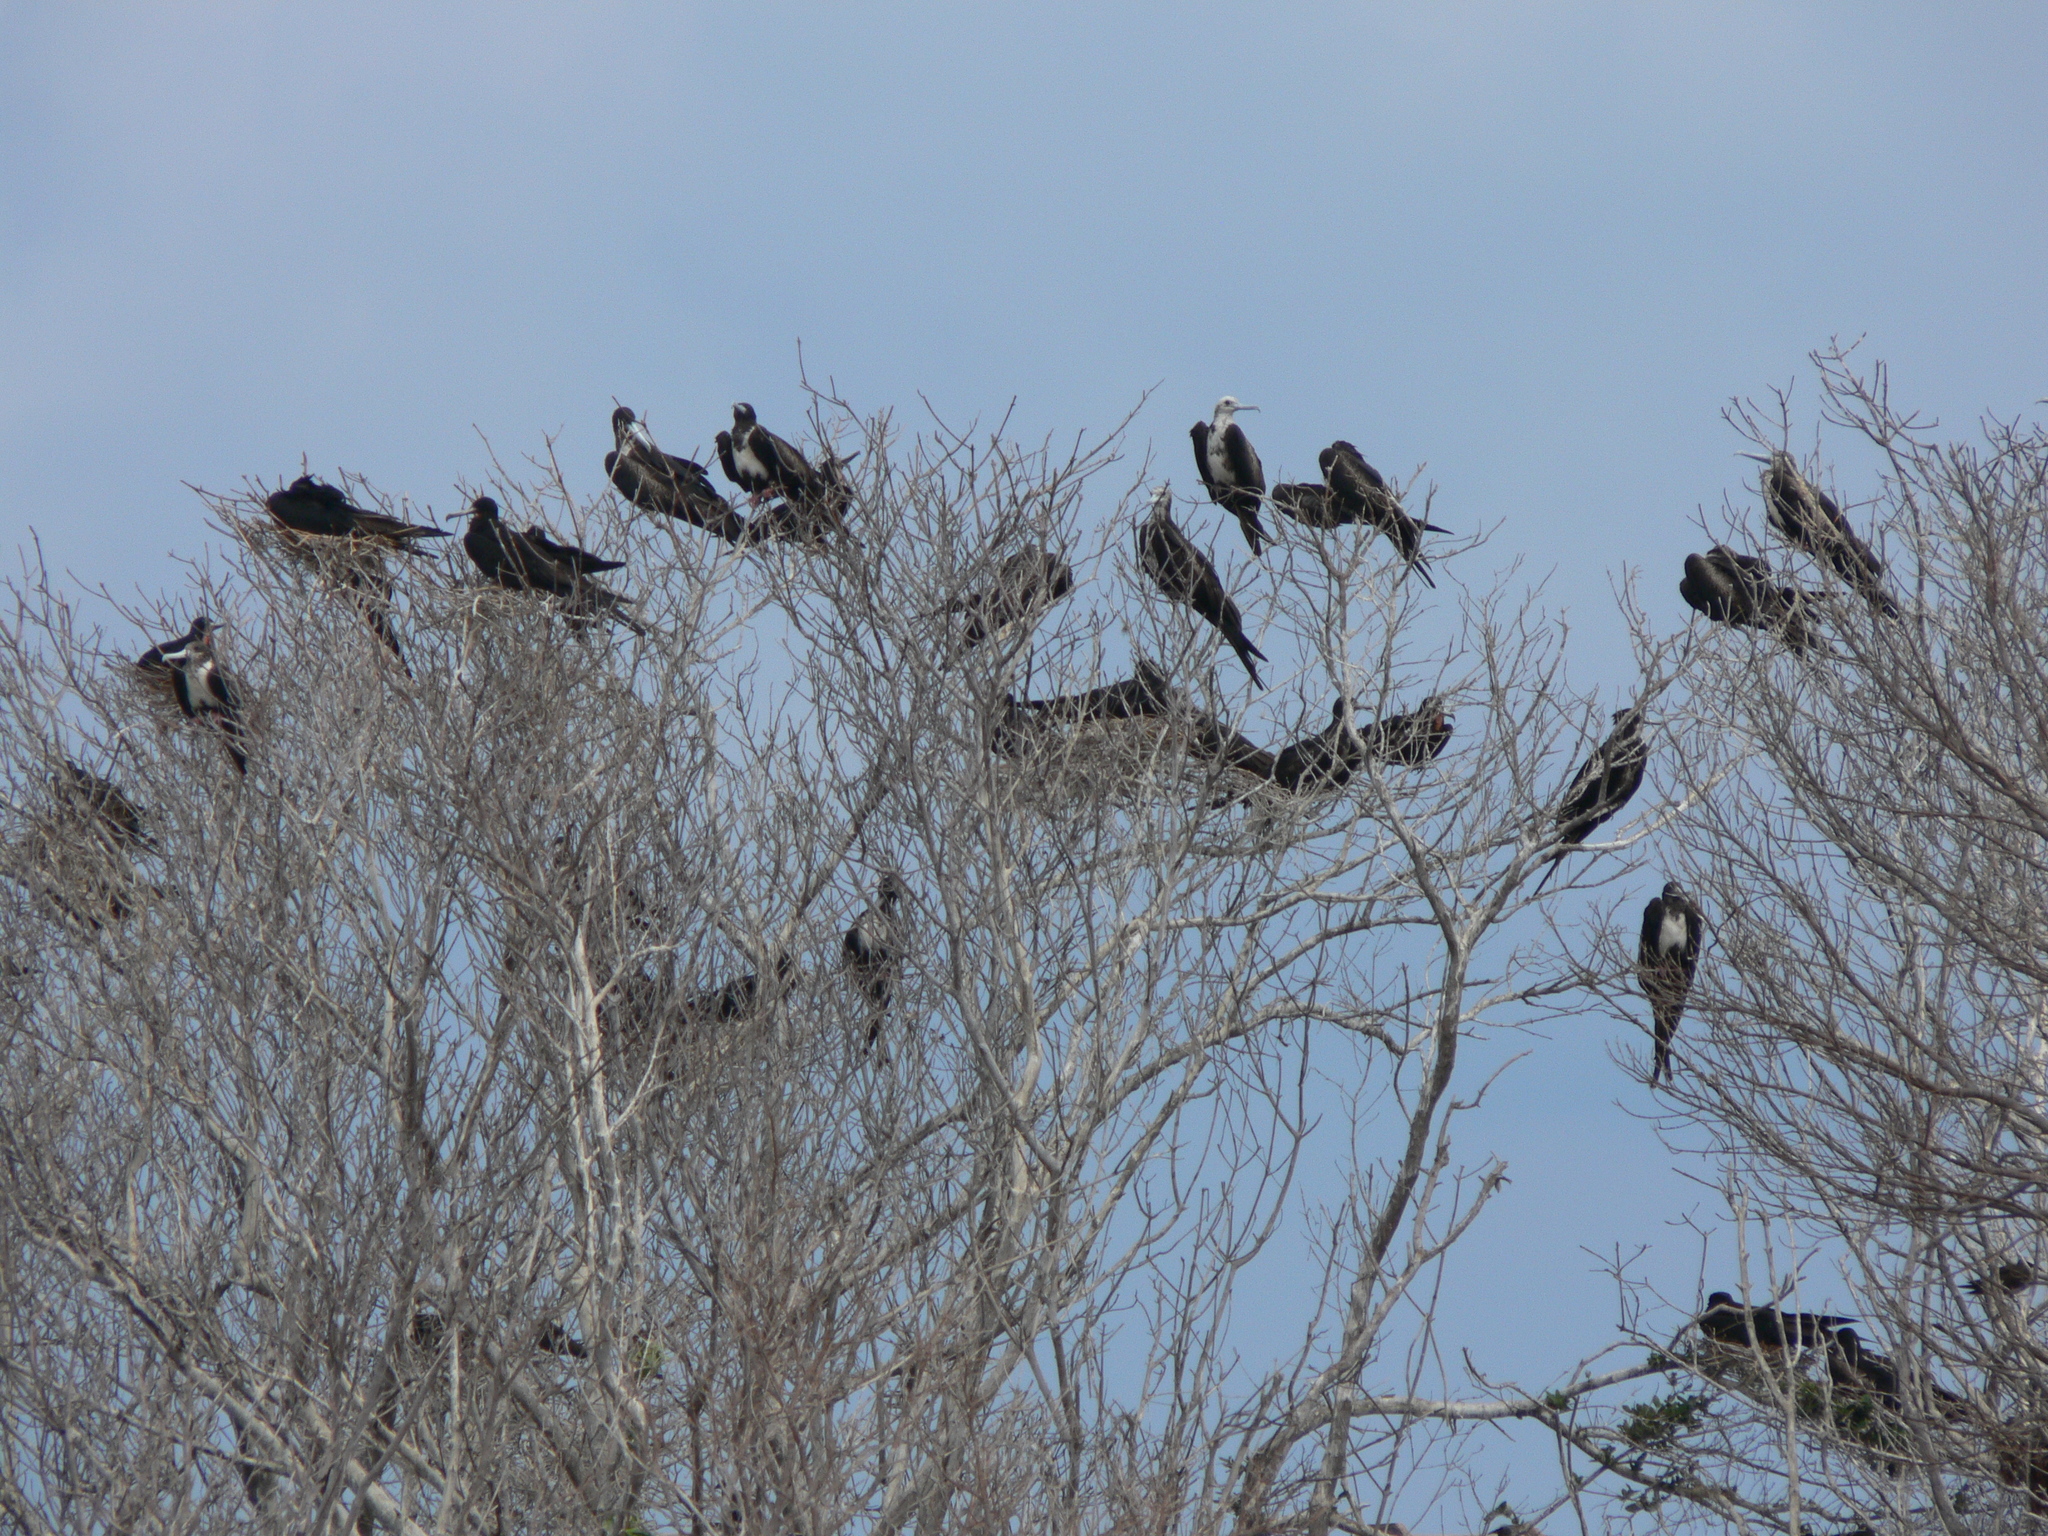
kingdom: Animalia
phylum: Chordata
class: Aves
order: Suliformes
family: Fregatidae
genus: Fregata
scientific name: Fregata magnificens
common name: Magnificent frigatebird
